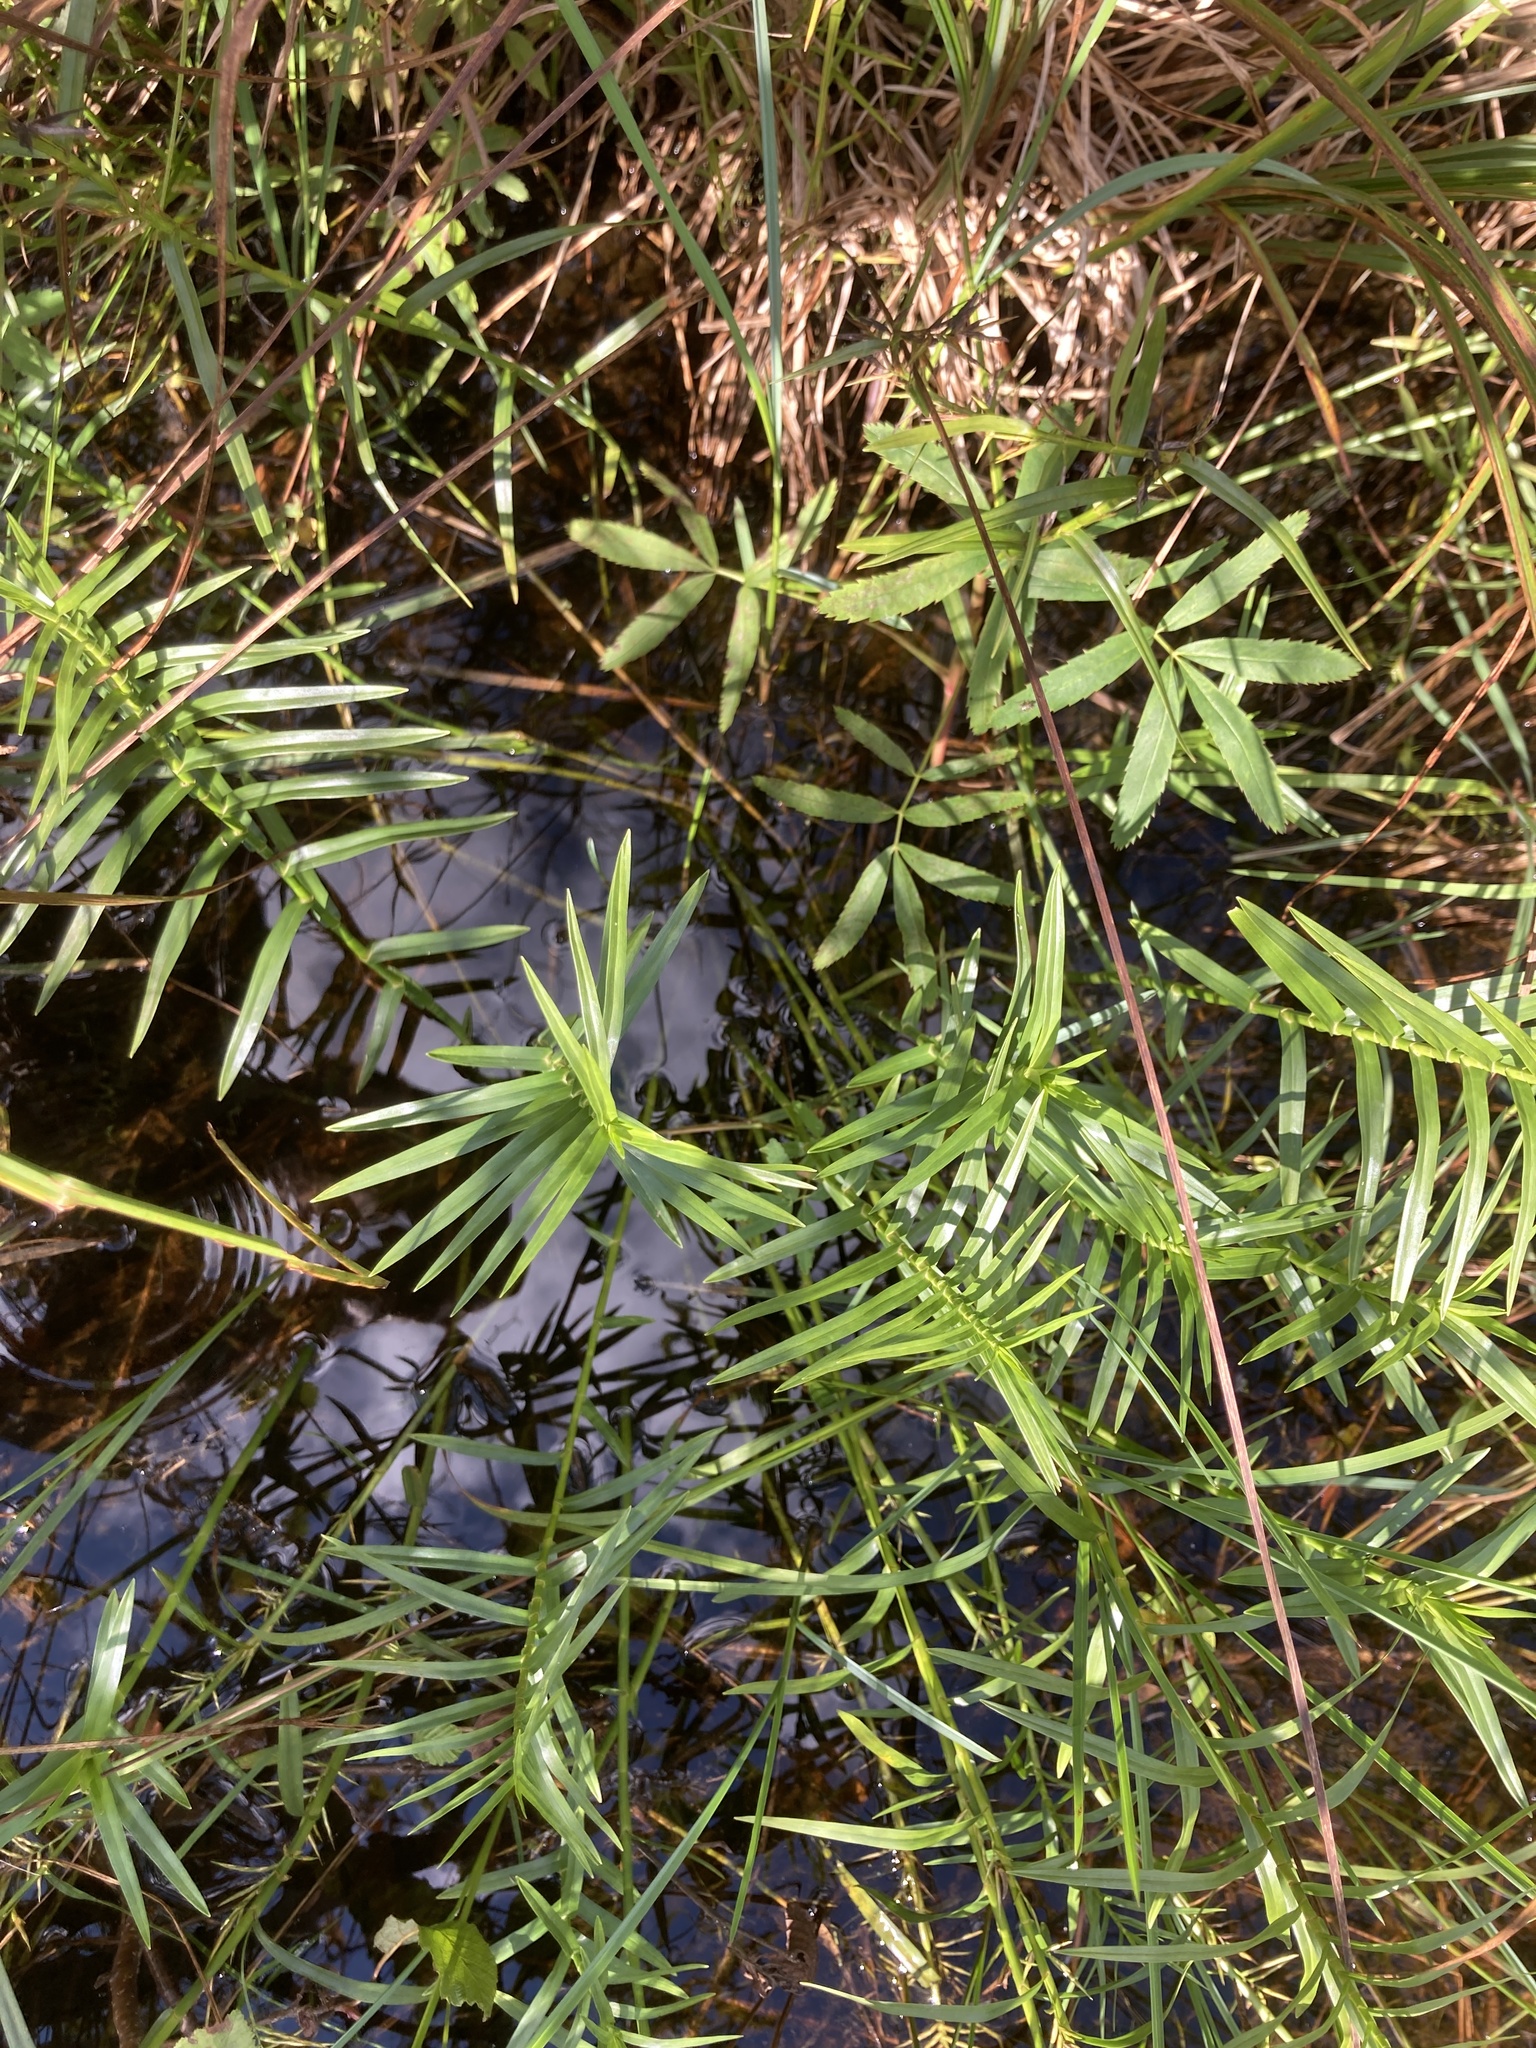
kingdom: Plantae
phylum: Tracheophyta
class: Liliopsida
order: Poales
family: Cyperaceae
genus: Dulichium
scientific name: Dulichium arundinaceum
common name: Three-way sedge
